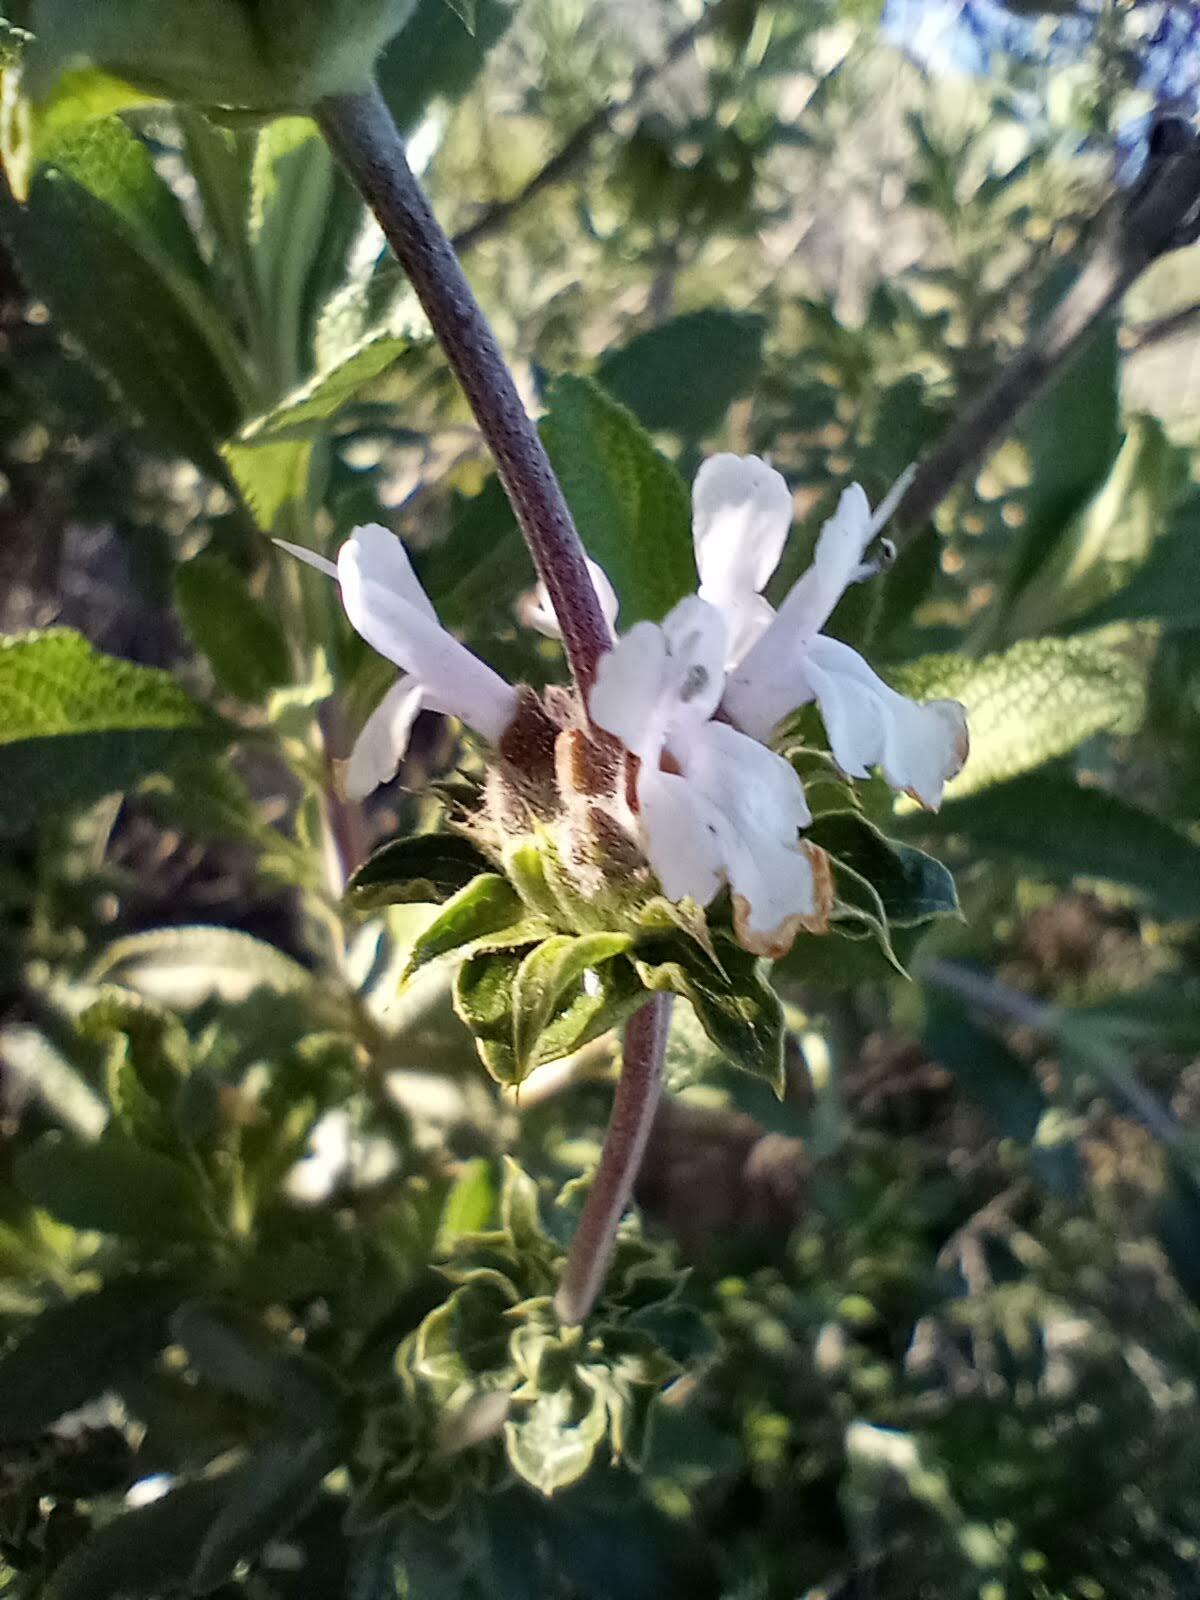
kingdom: Plantae
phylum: Tracheophyta
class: Magnoliopsida
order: Lamiales
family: Lamiaceae
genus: Salvia
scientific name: Salvia mellifera
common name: Black sage
